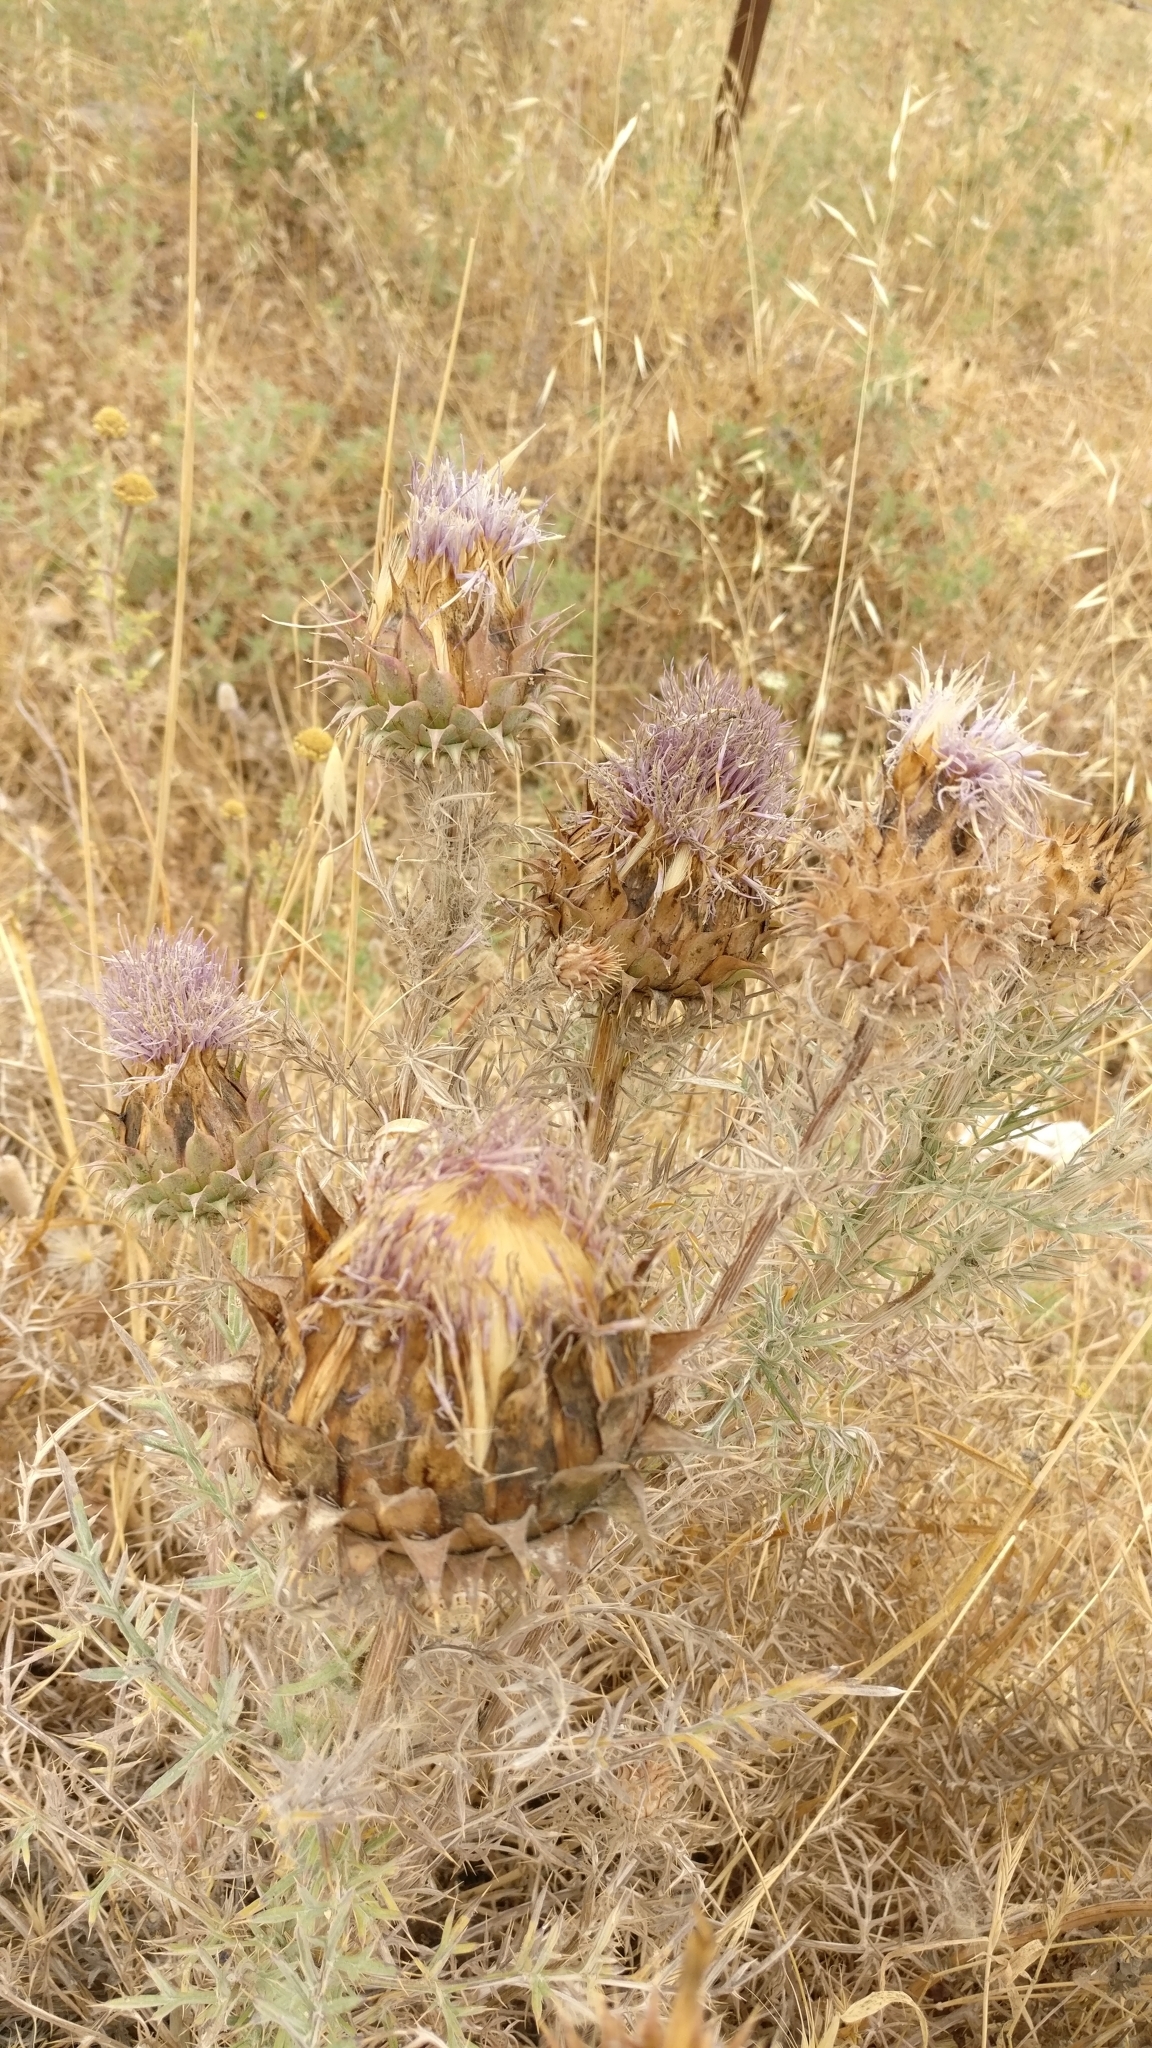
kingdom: Plantae
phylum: Tracheophyta
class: Magnoliopsida
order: Asterales
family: Asteraceae
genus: Cynara
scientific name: Cynara humilis
